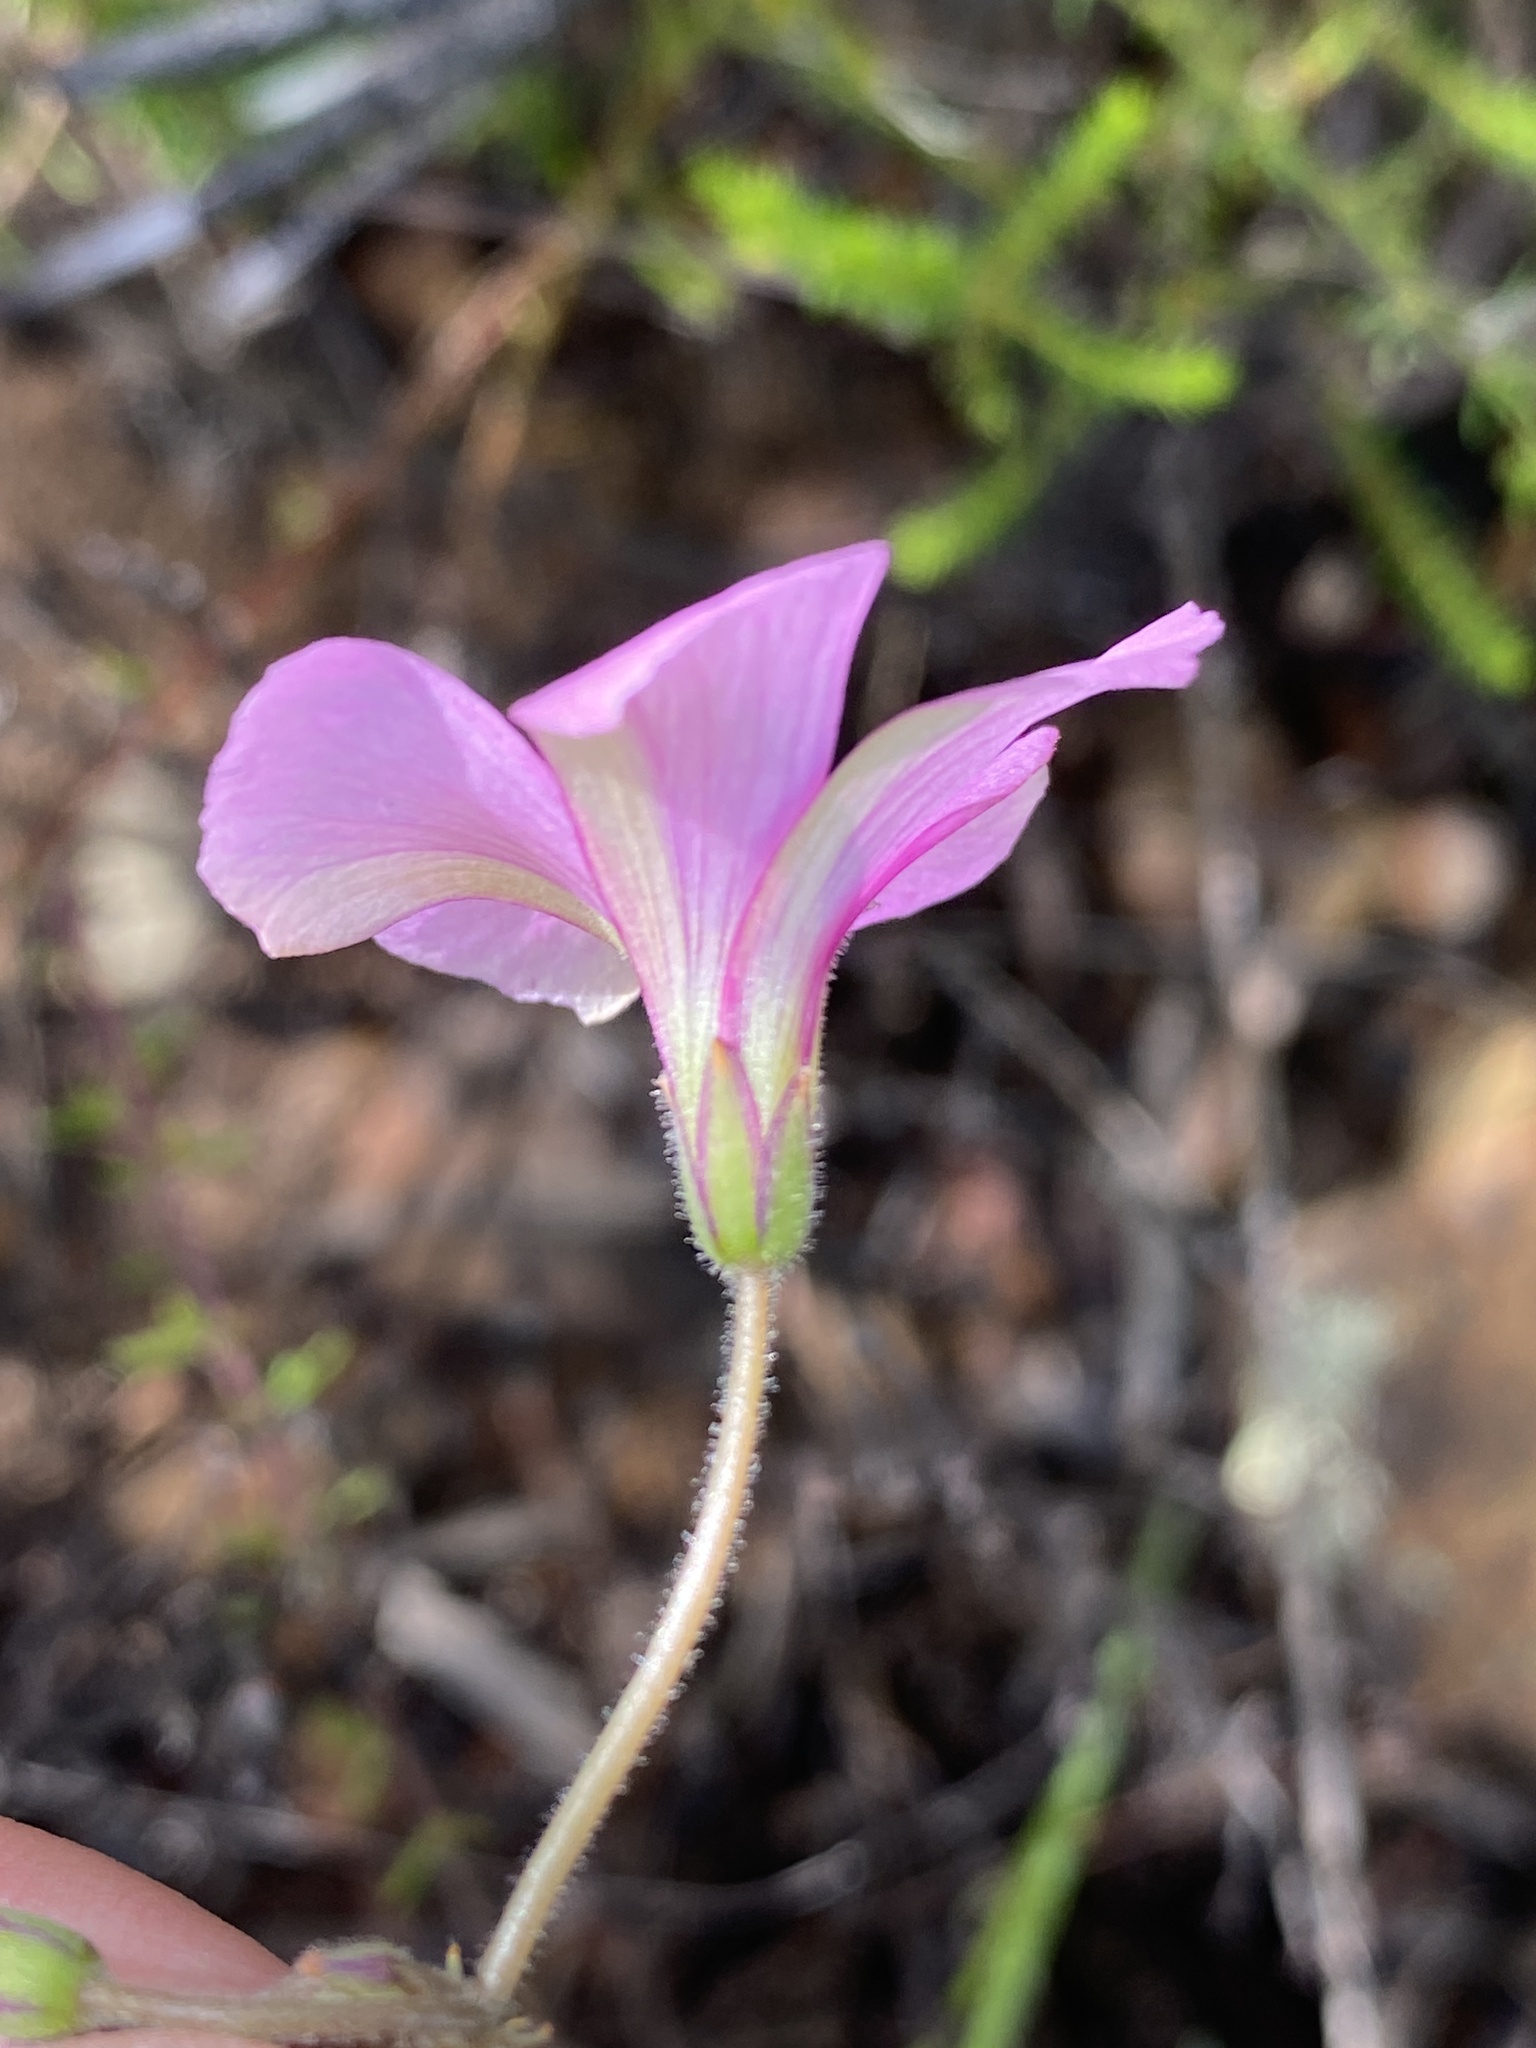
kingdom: Plantae
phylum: Tracheophyta
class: Magnoliopsida
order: Oxalidales
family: Oxalidaceae
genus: Oxalis
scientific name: Oxalis livida
